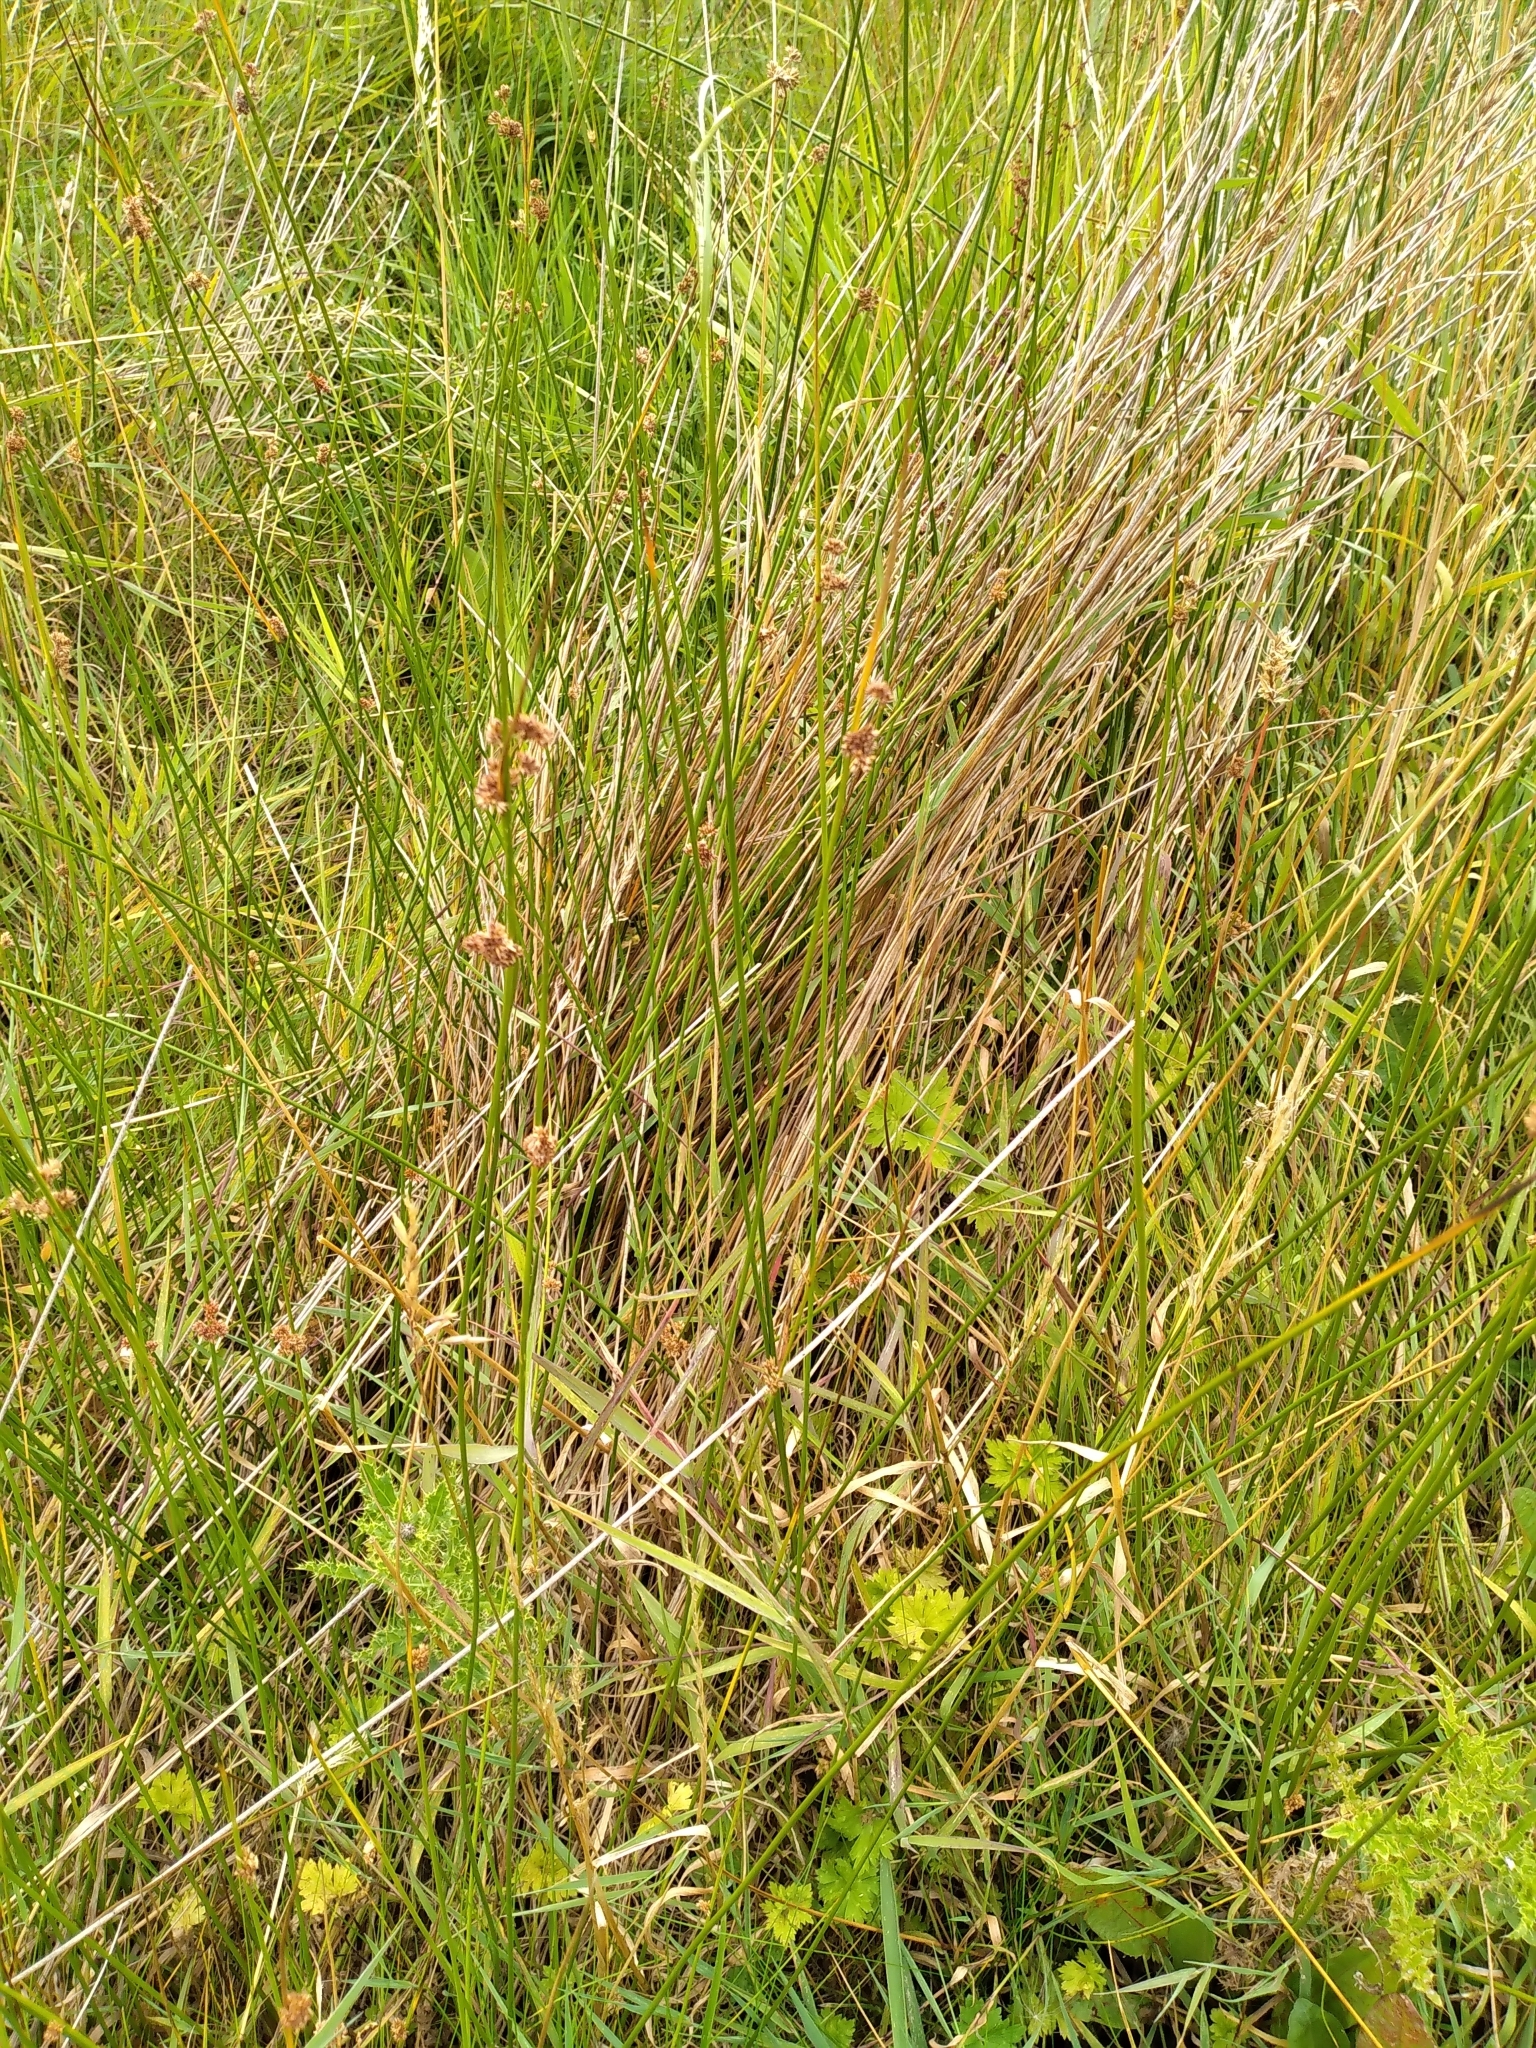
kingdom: Plantae
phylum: Tracheophyta
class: Liliopsida
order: Poales
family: Juncaceae
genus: Juncus
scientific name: Juncus edgariae
